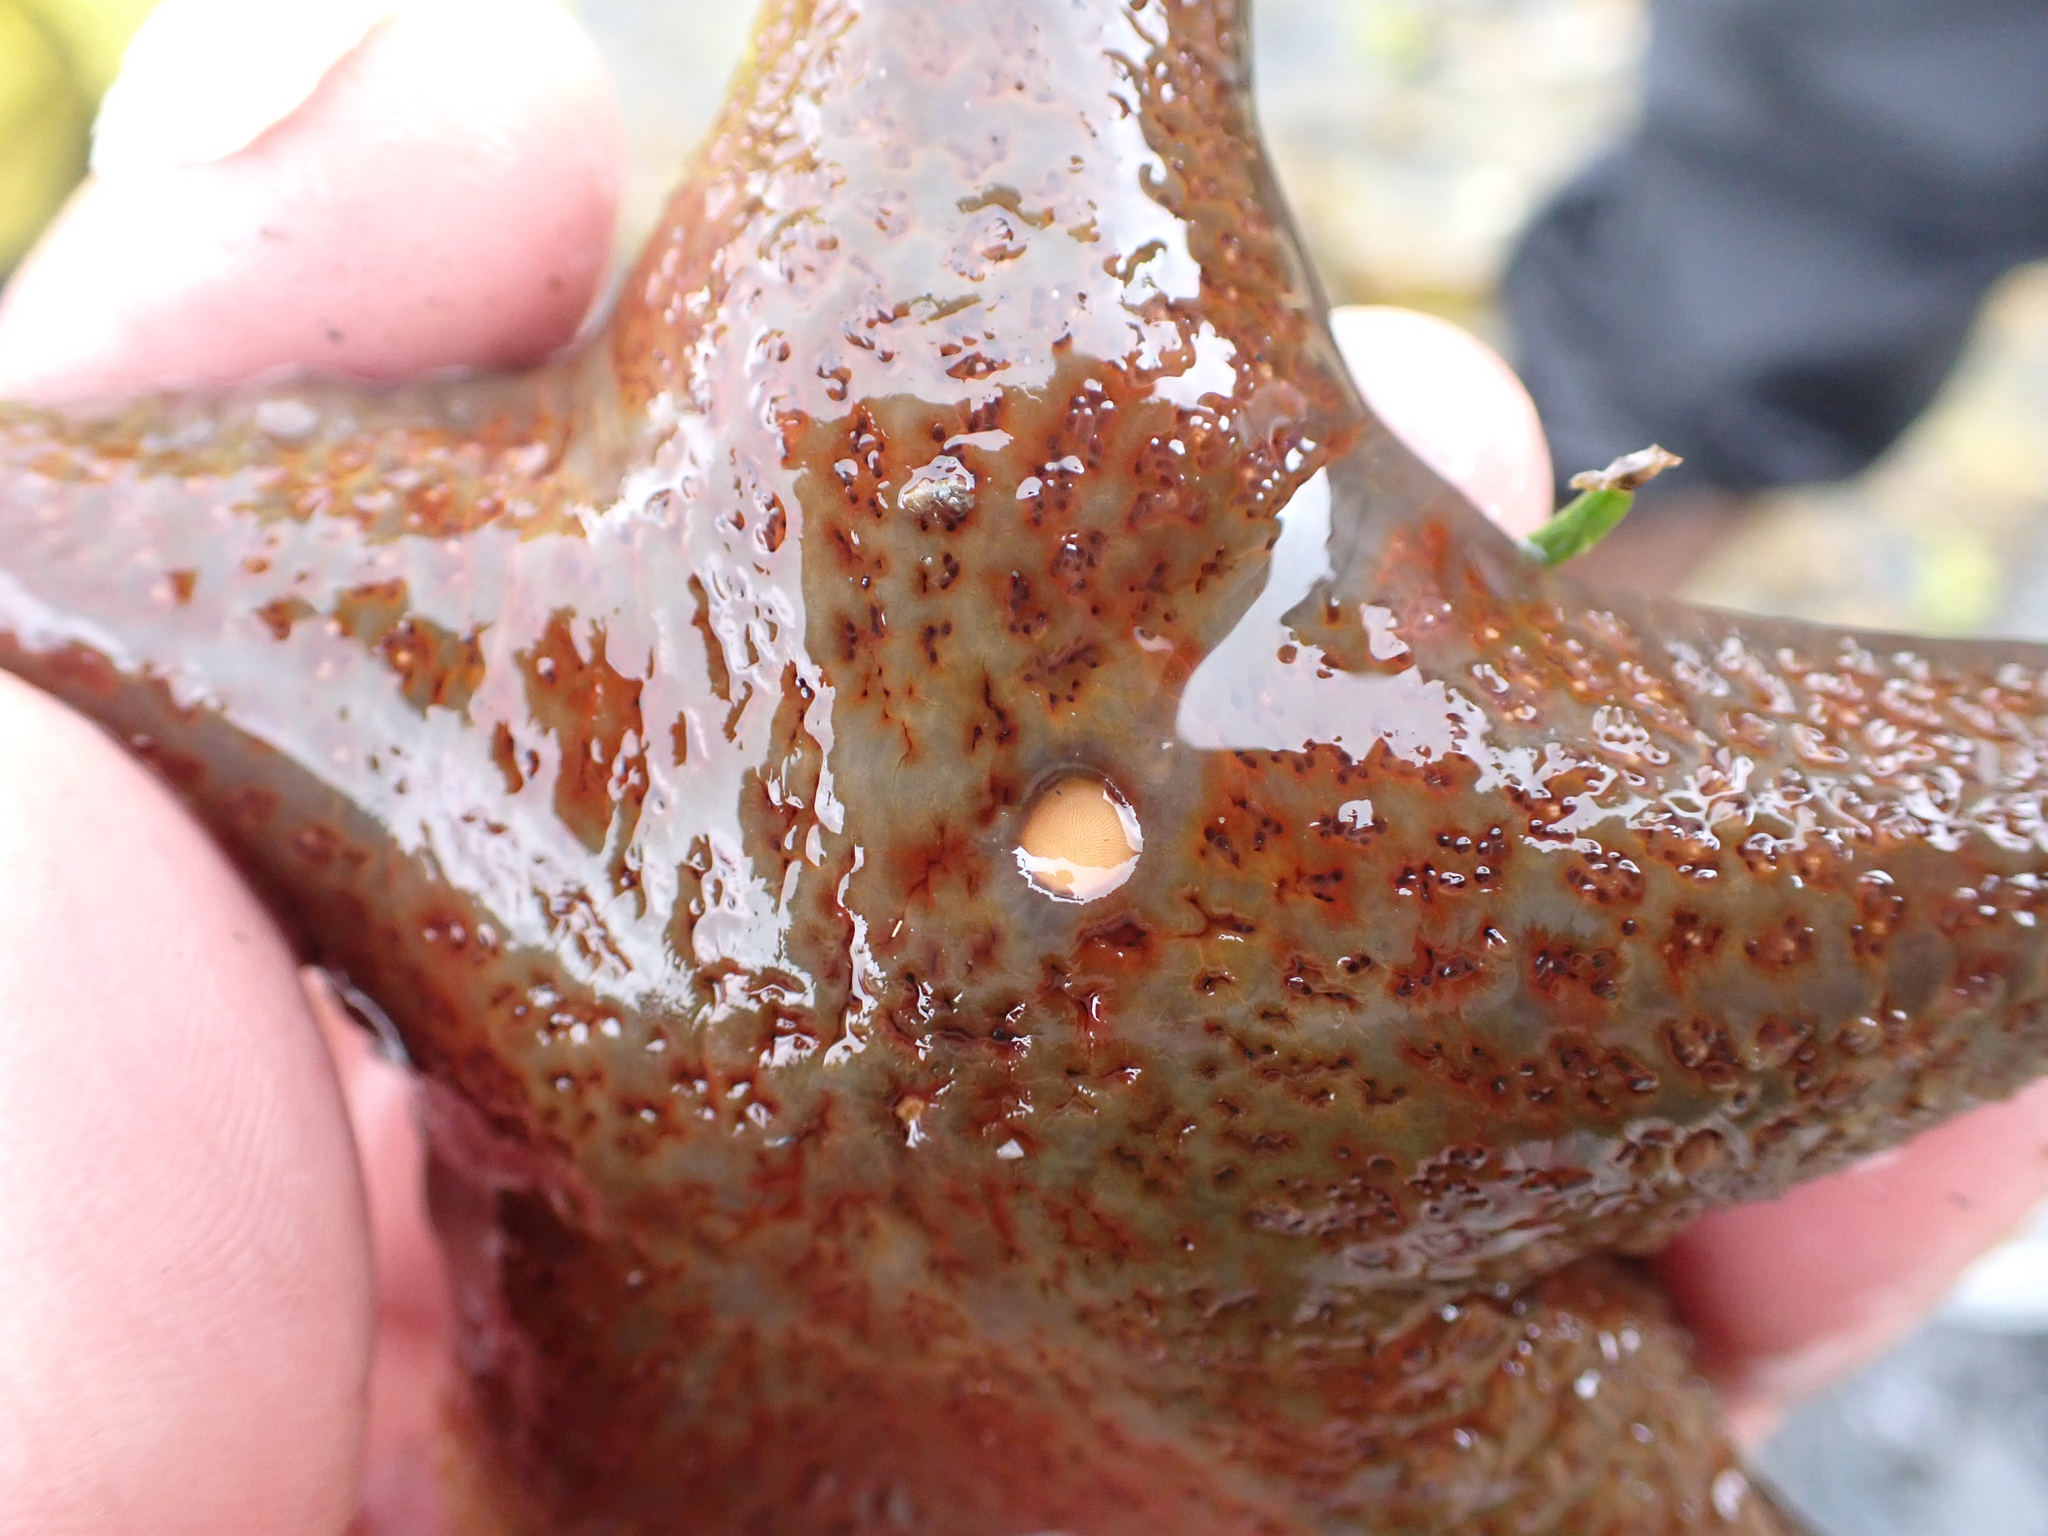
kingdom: Animalia
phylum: Echinodermata
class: Asteroidea
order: Valvatida
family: Asteropseidae
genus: Dermasterias
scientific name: Dermasterias imbricata
